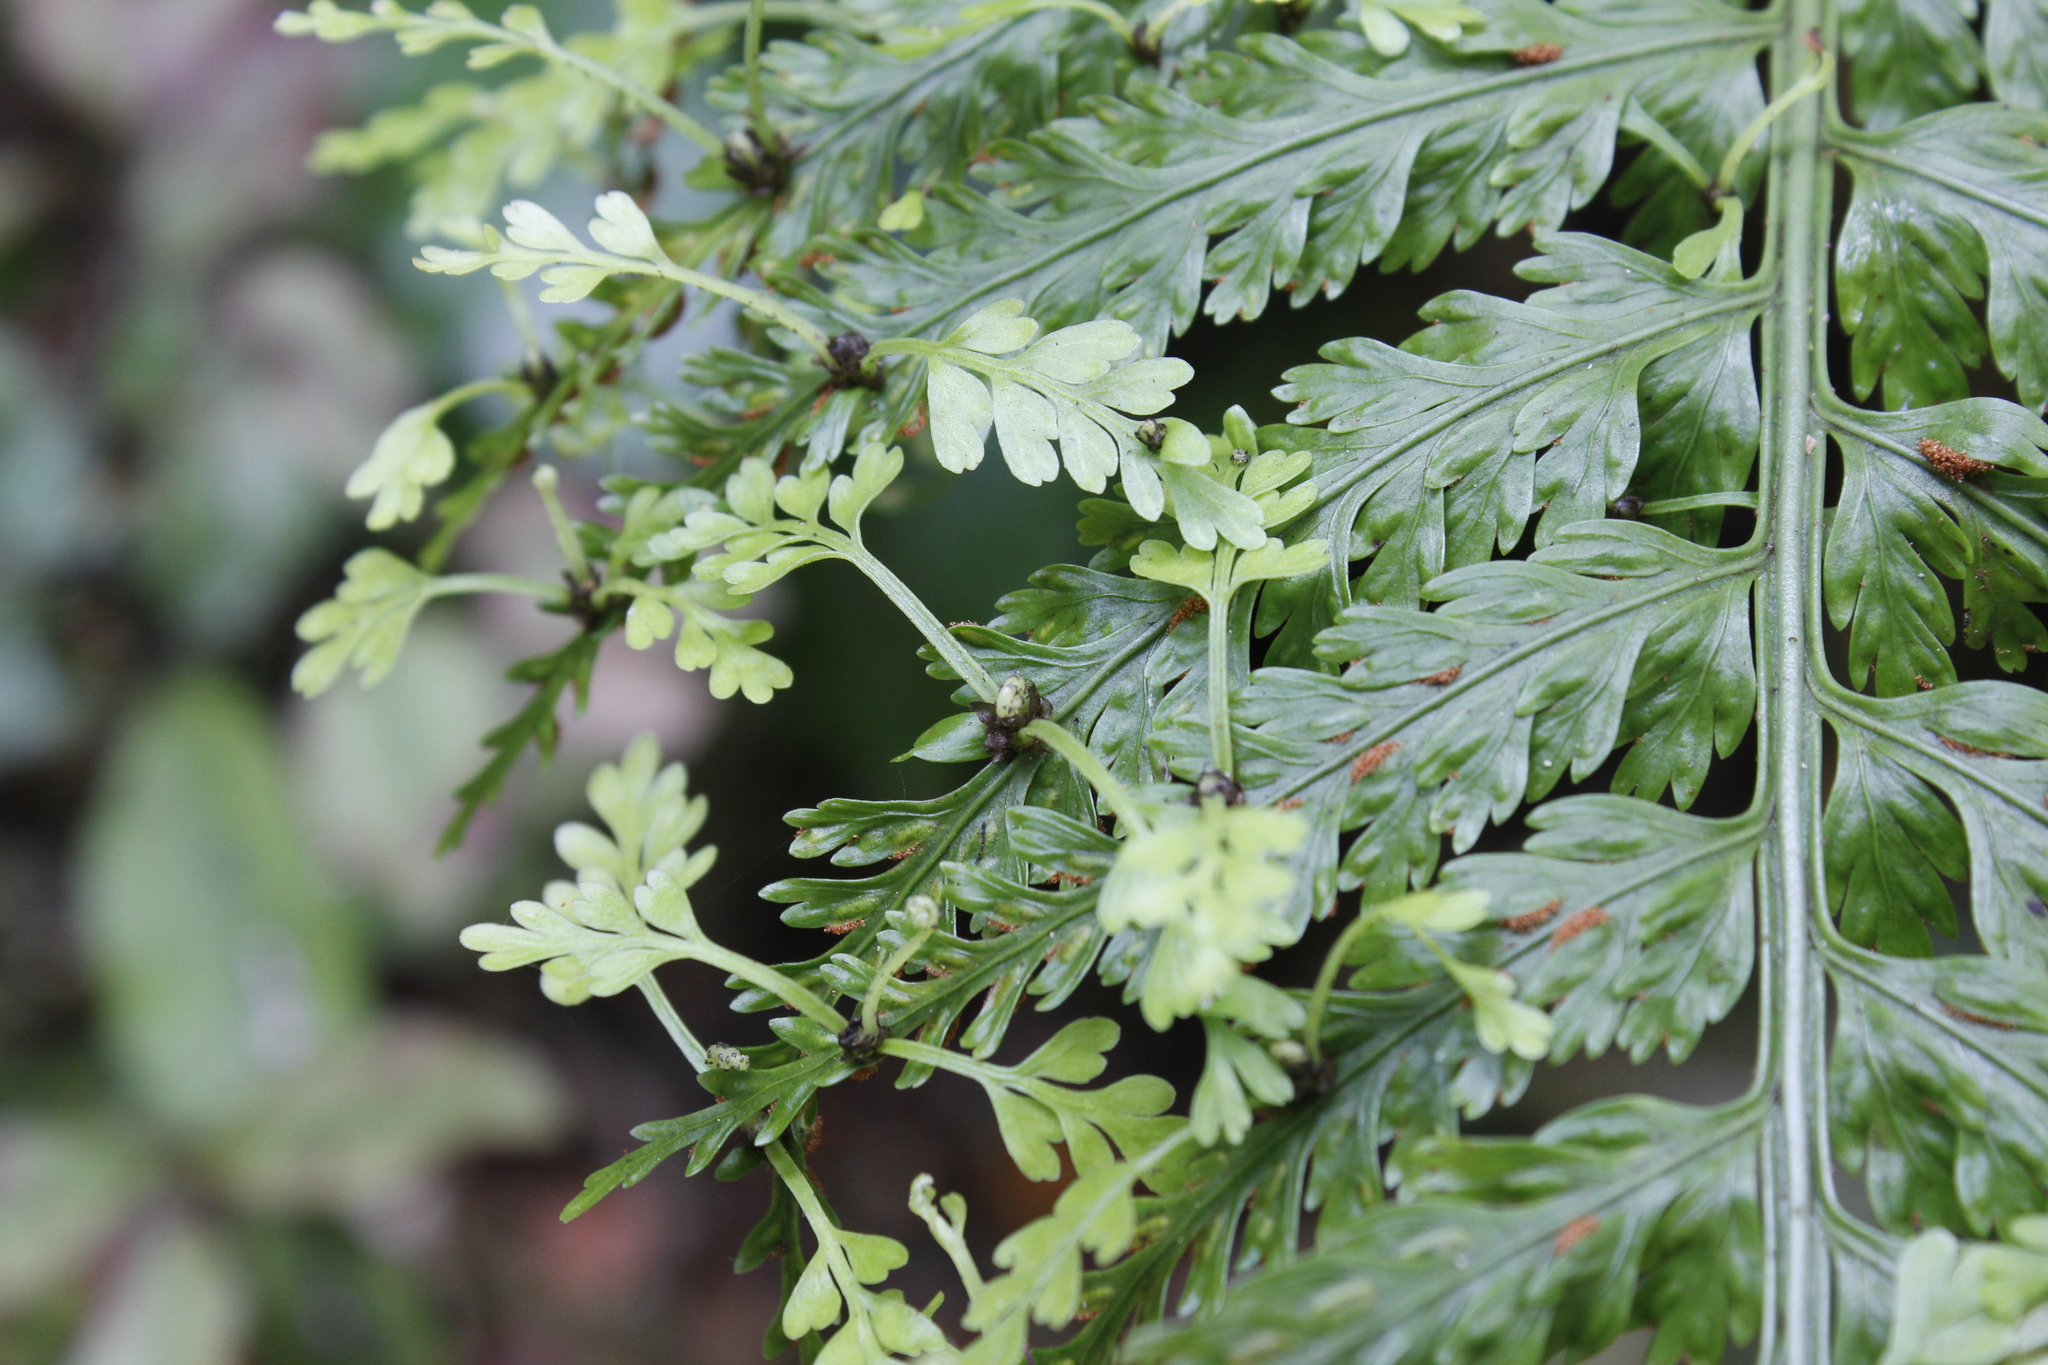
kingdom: Plantae
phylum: Tracheophyta
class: Polypodiopsida
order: Polypodiales
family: Aspleniaceae
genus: Asplenium
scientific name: Asplenium bulbiferum
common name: Mother fern
